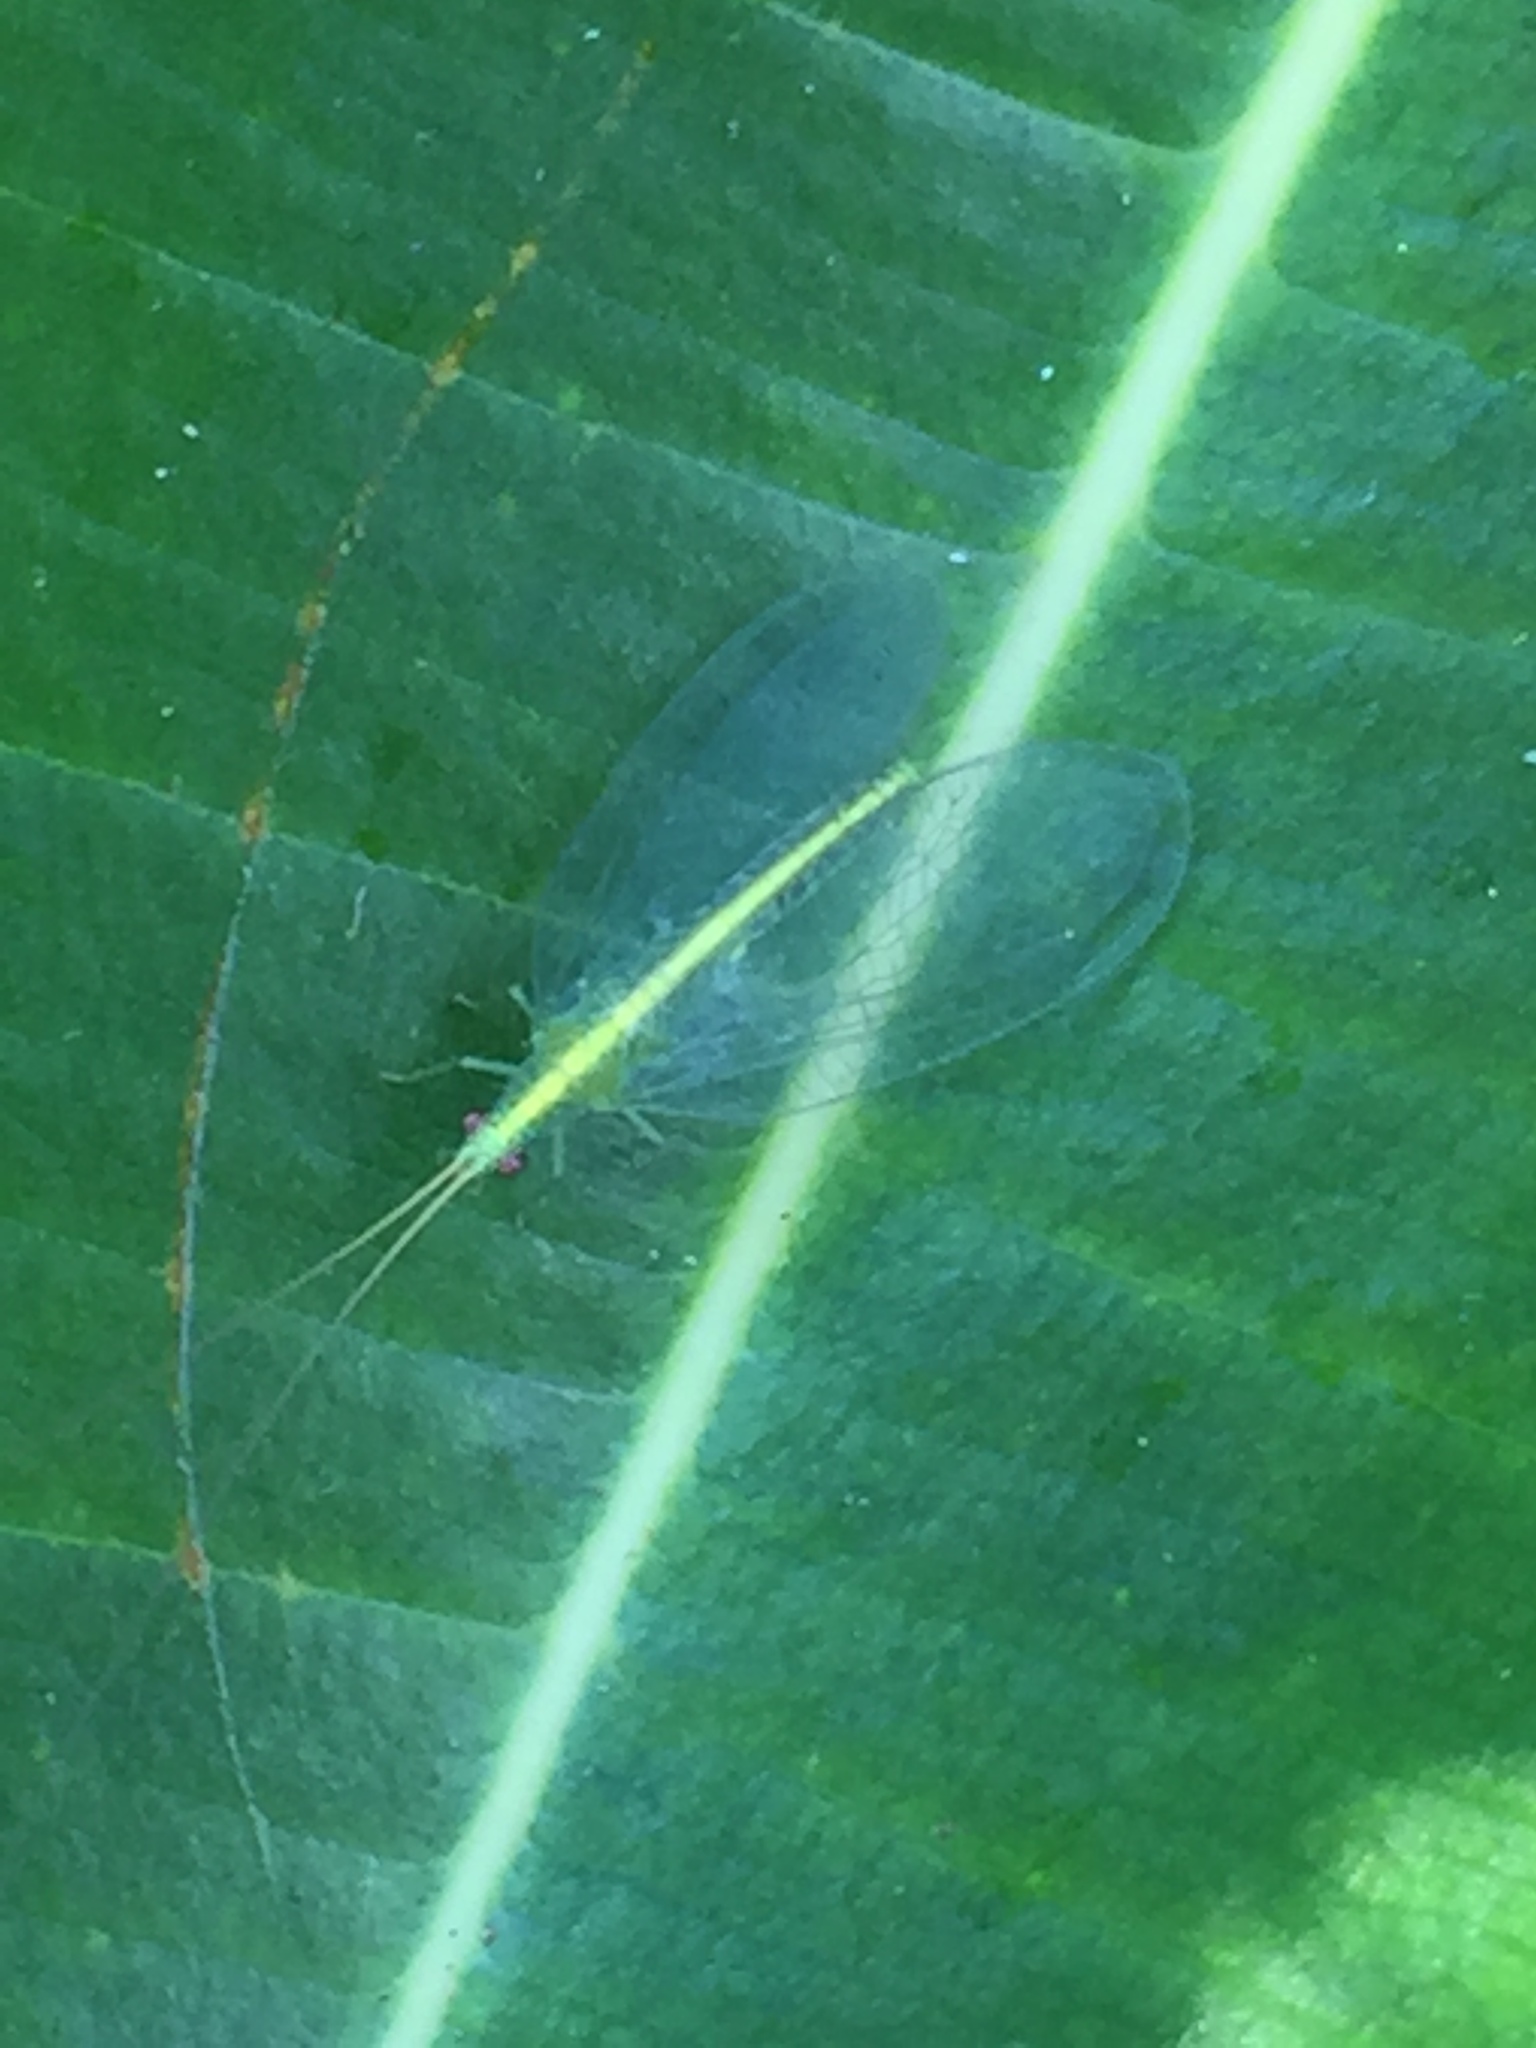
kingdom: Animalia
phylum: Arthropoda
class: Insecta
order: Neuroptera
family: Chrysopidae
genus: Mallada
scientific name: Mallada basalis
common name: Green lacewing
